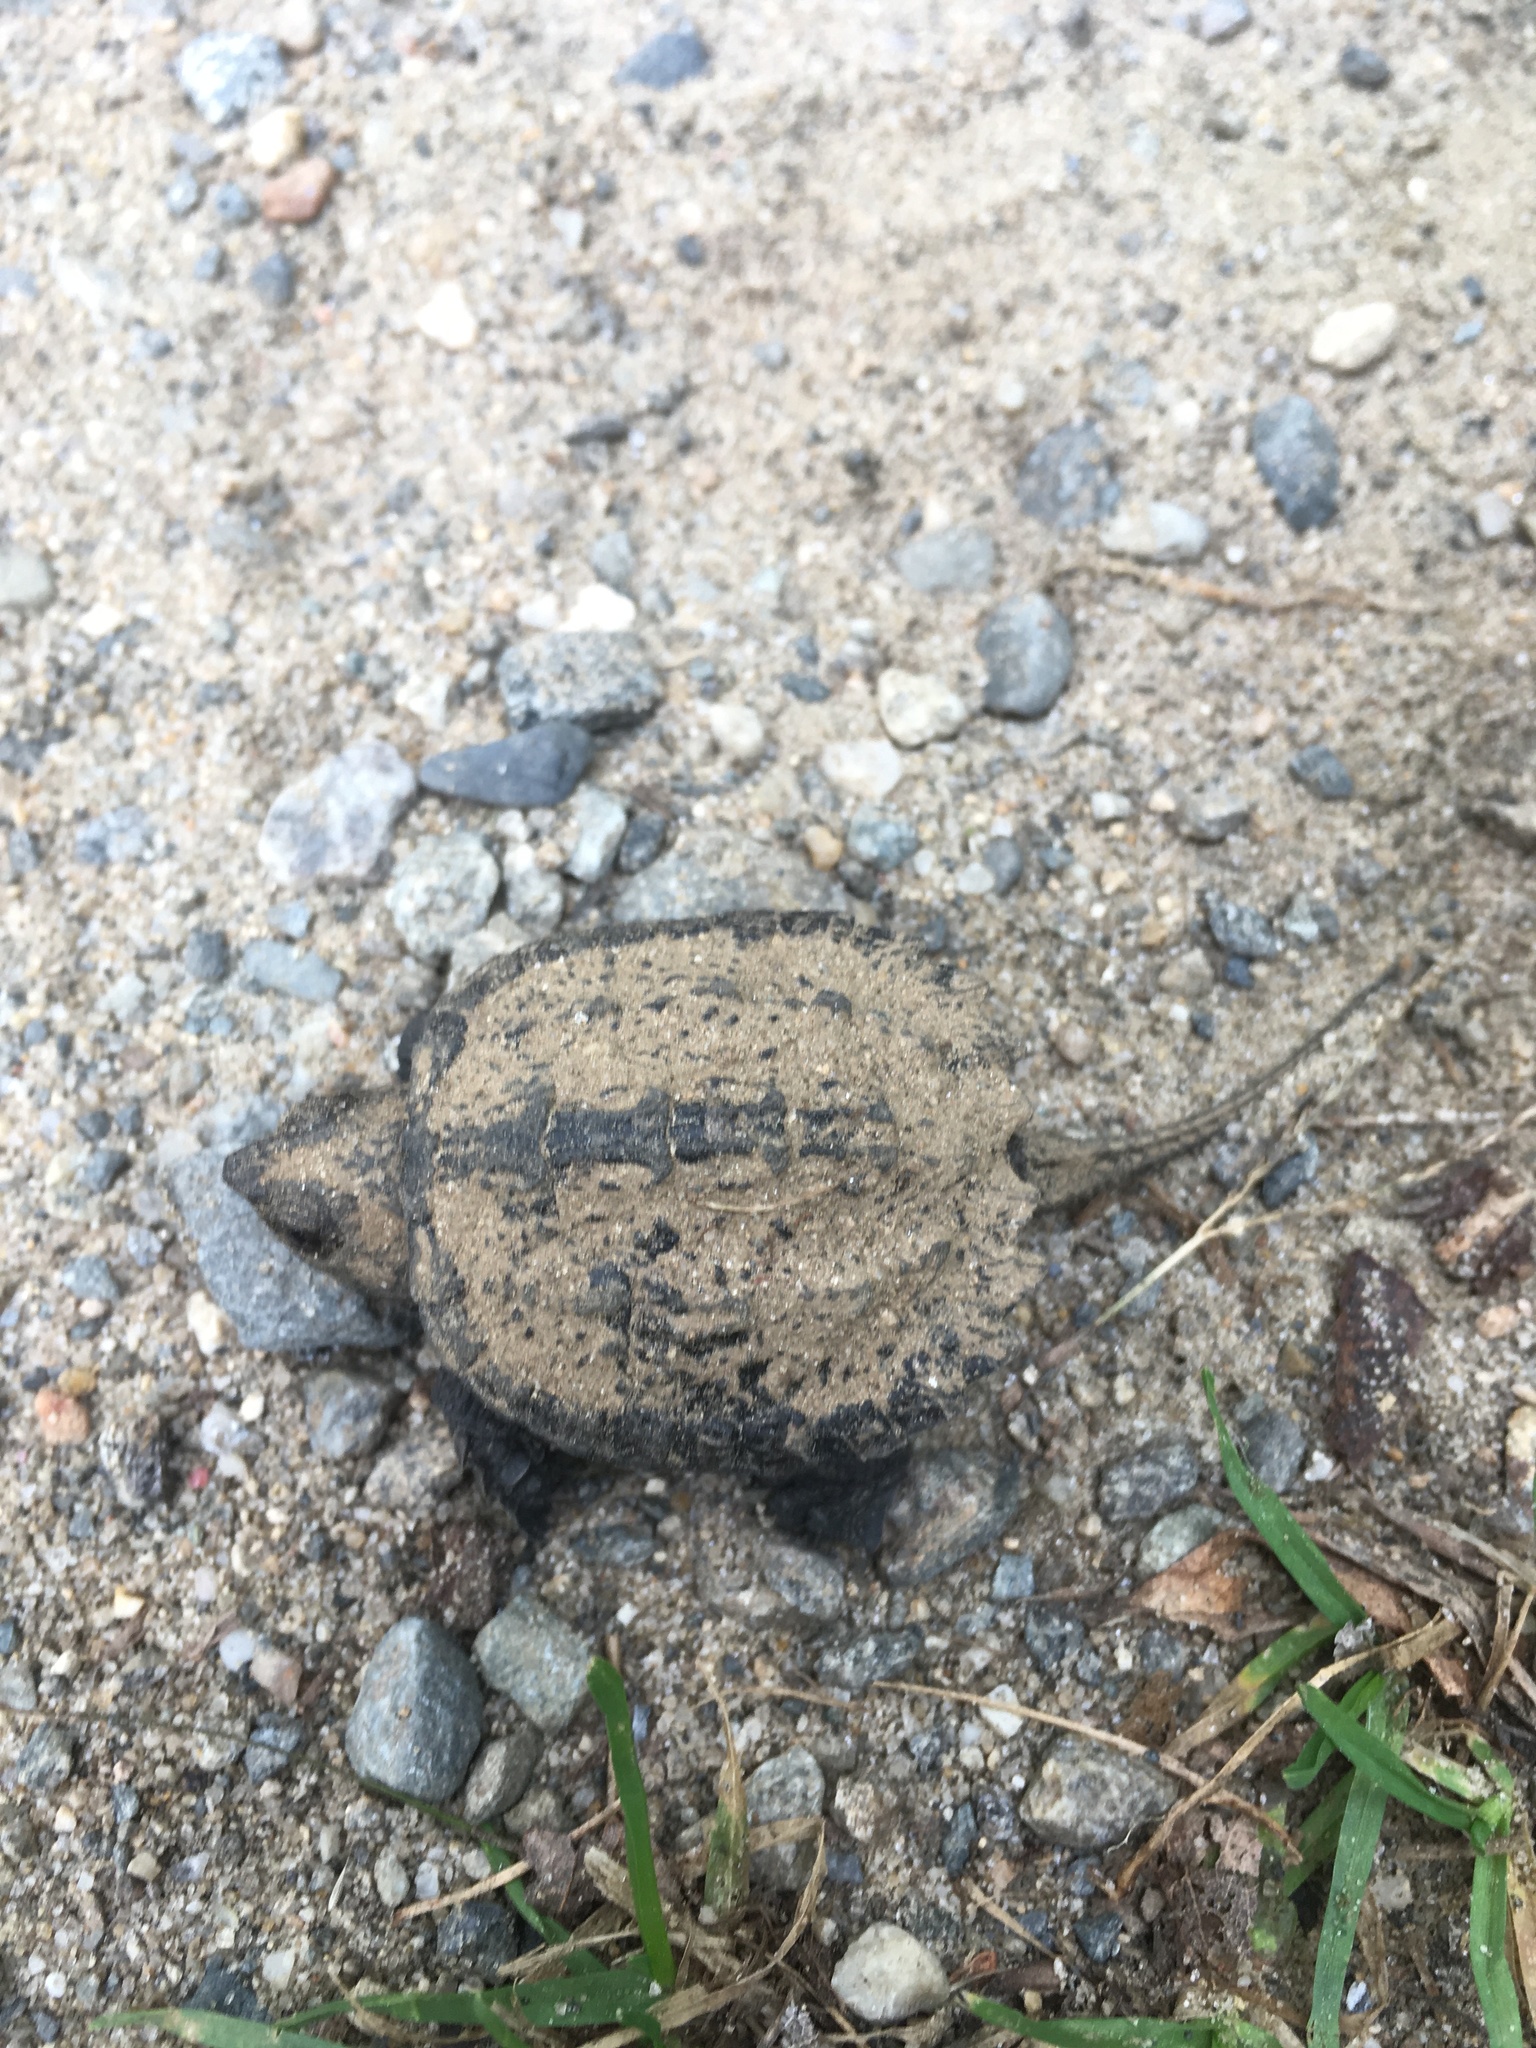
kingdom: Animalia
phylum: Chordata
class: Testudines
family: Chelydridae
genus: Chelydra
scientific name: Chelydra serpentina
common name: Common snapping turtle
